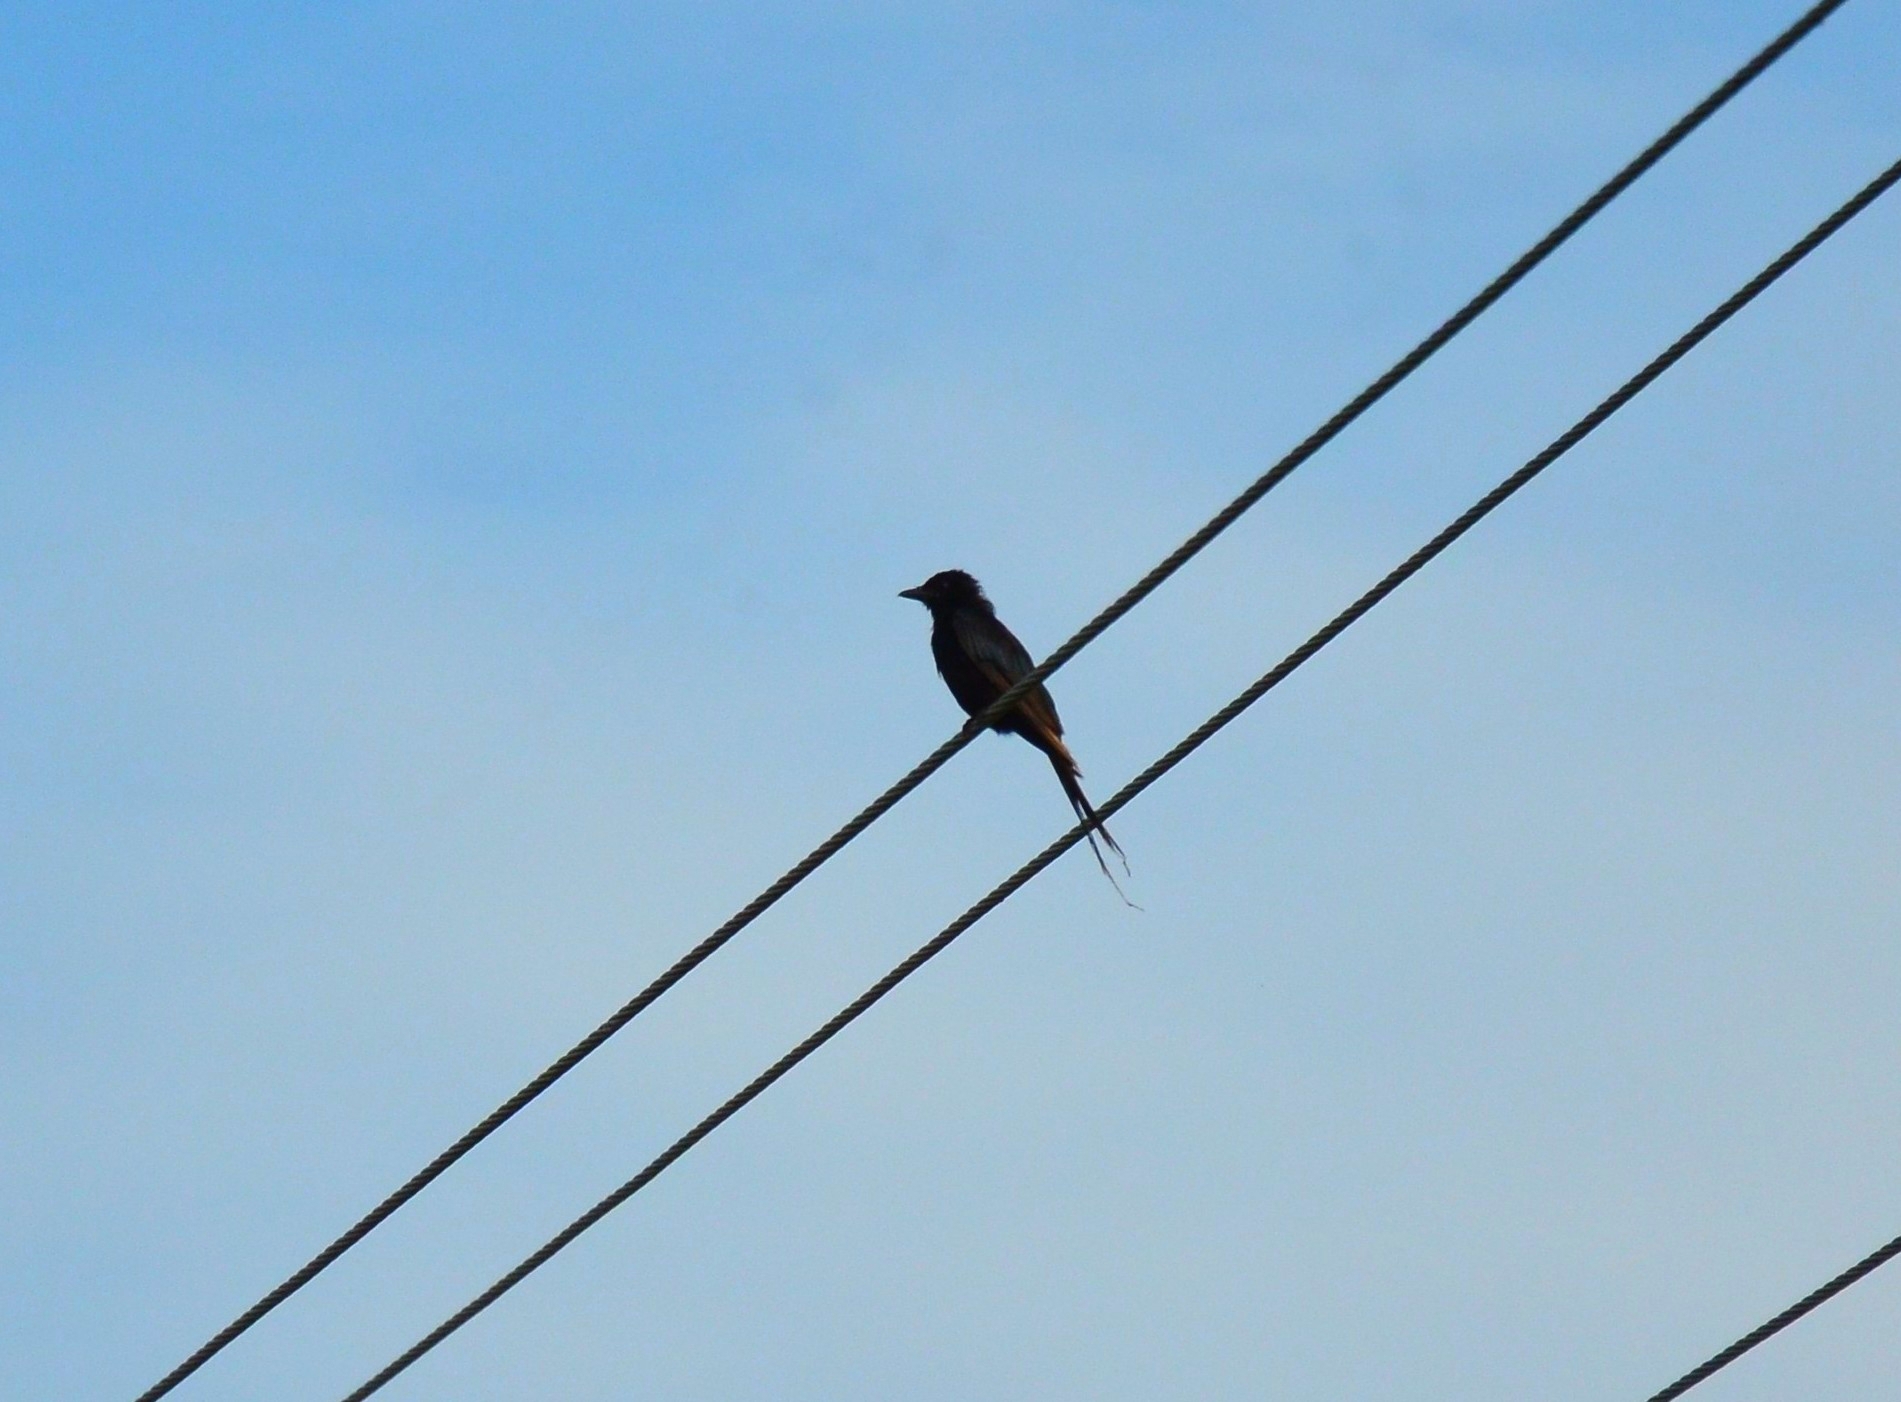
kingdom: Animalia
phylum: Chordata
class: Aves
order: Passeriformes
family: Dicruridae
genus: Dicrurus
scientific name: Dicrurus macrocercus
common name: Black drongo
